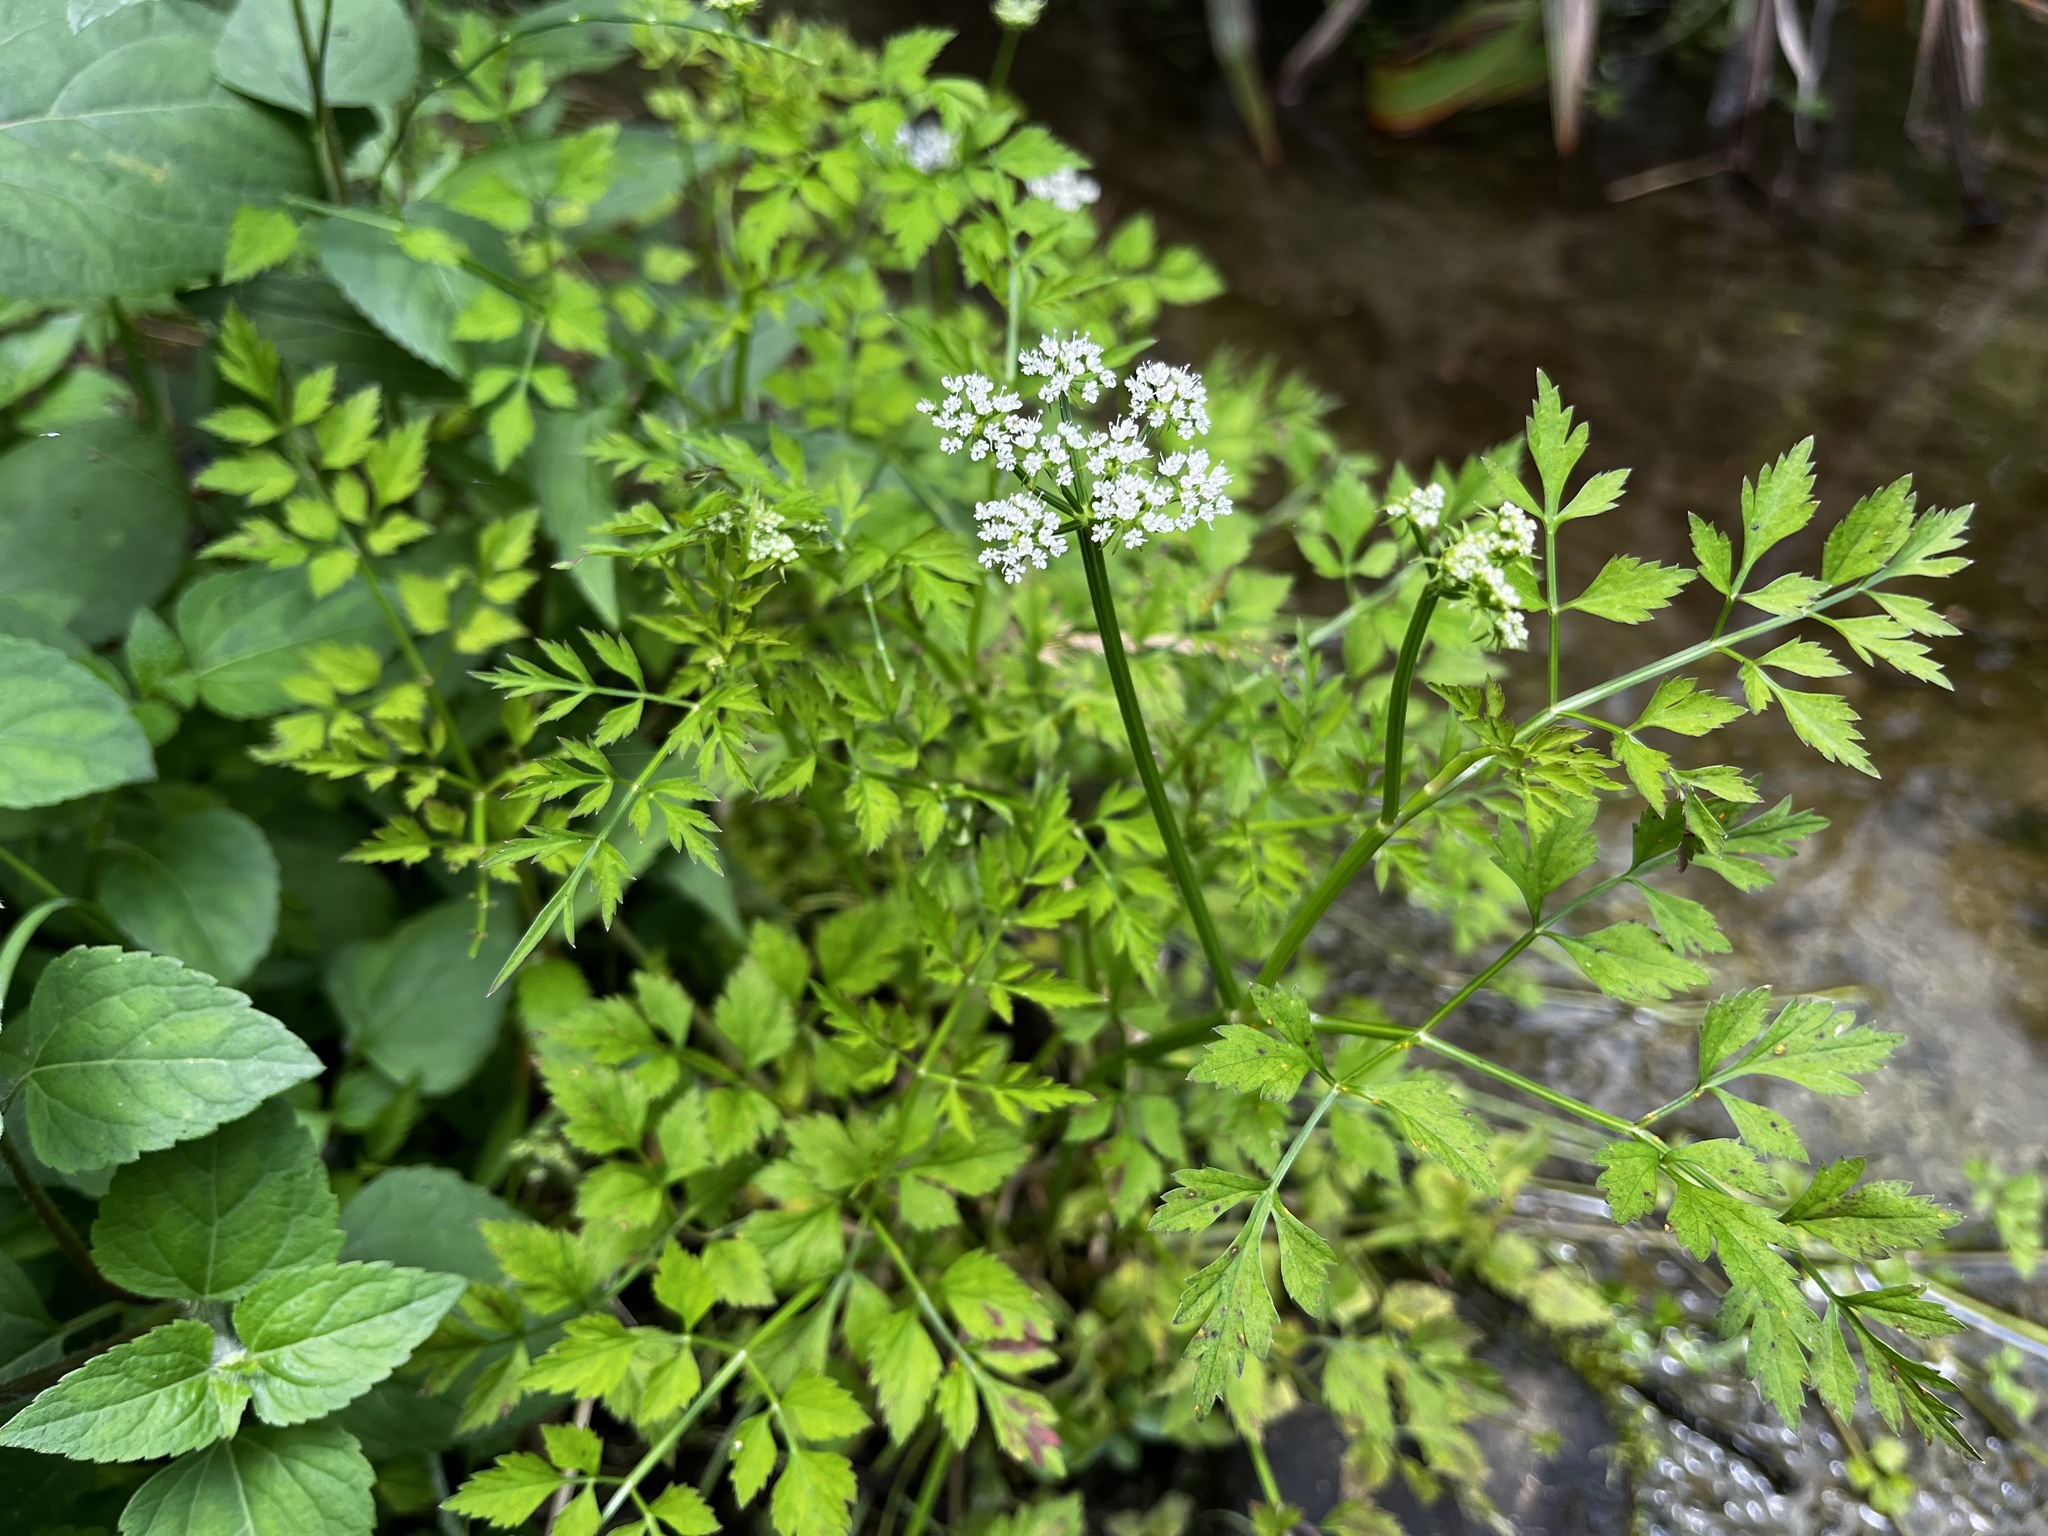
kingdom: Plantae
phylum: Tracheophyta
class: Magnoliopsida
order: Apiales
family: Apiaceae
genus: Oenanthe
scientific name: Oenanthe javanica
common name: Java water-dropwort
